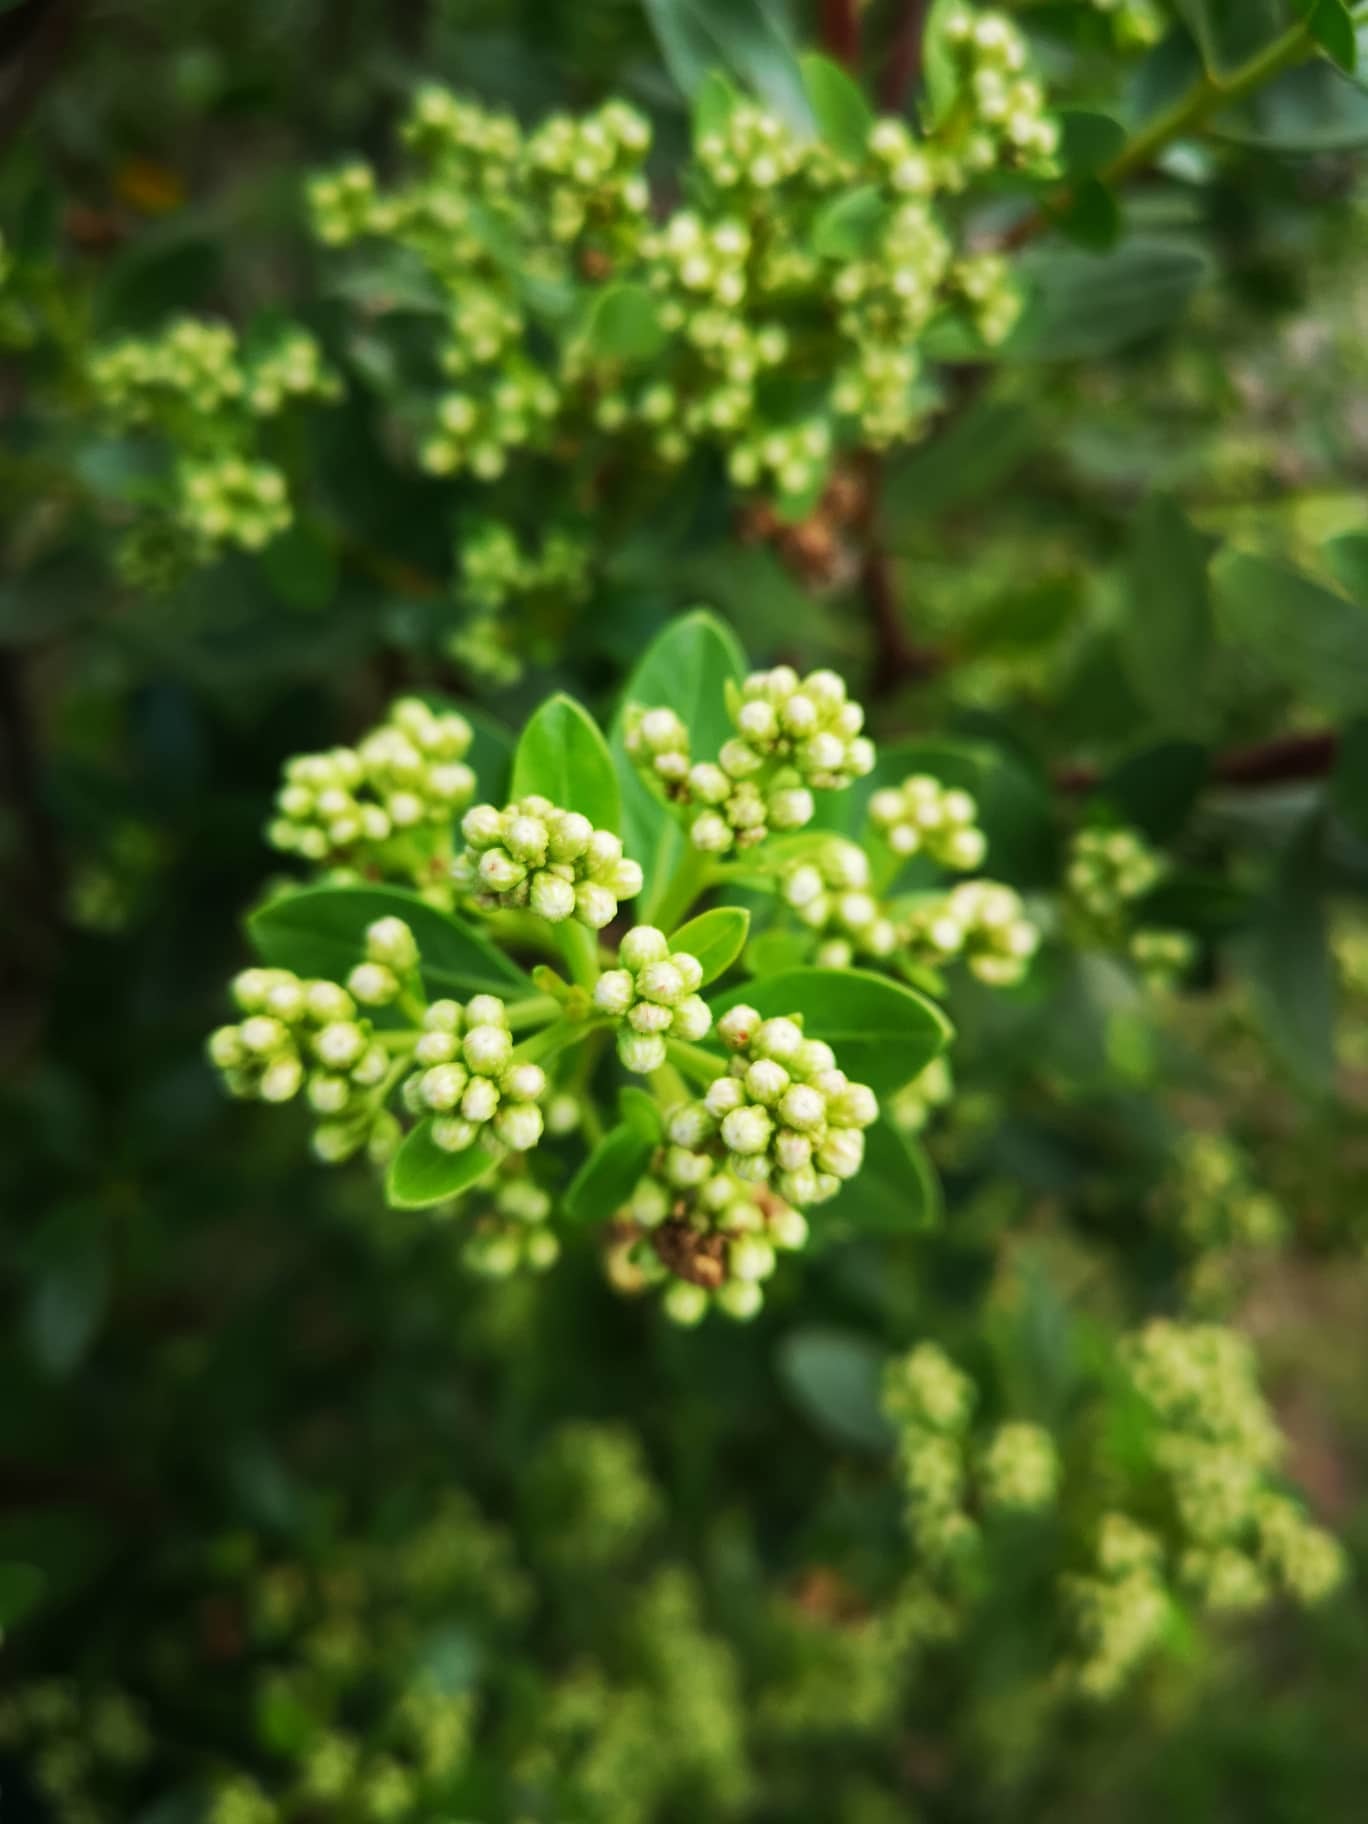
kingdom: Plantae
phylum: Tracheophyta
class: Magnoliopsida
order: Asterales
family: Asteraceae
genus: Baccharis
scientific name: Baccharis macrantha
